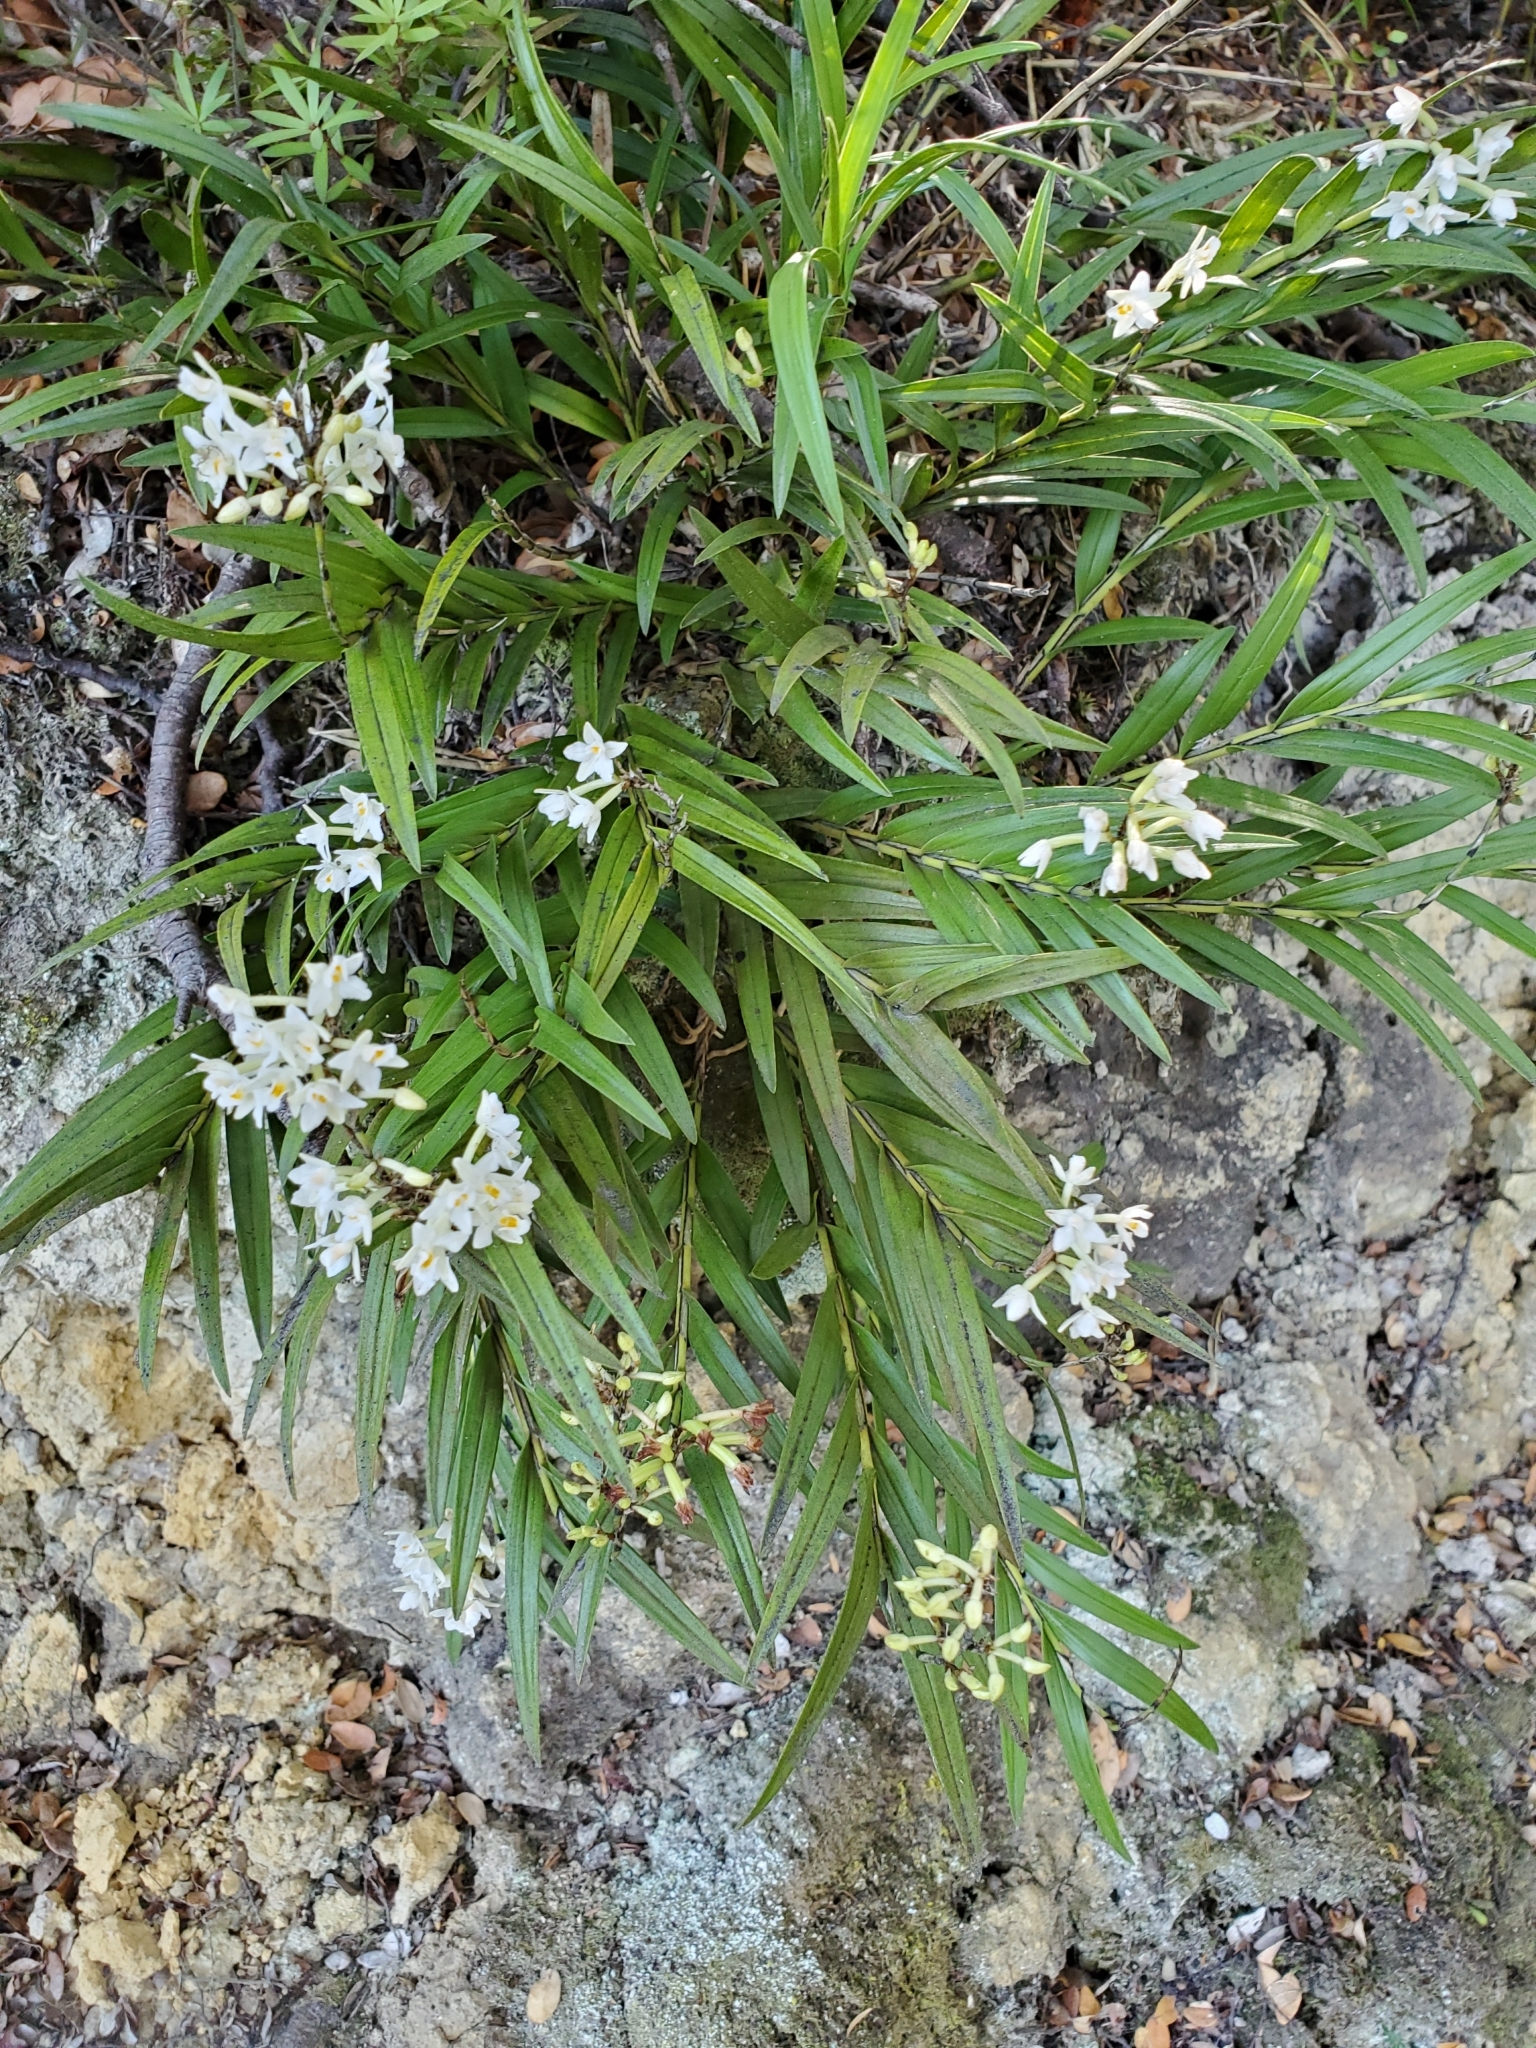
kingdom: Plantae
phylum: Tracheophyta
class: Liliopsida
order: Asparagales
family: Orchidaceae
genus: Earina
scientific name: Earina autumnalis
